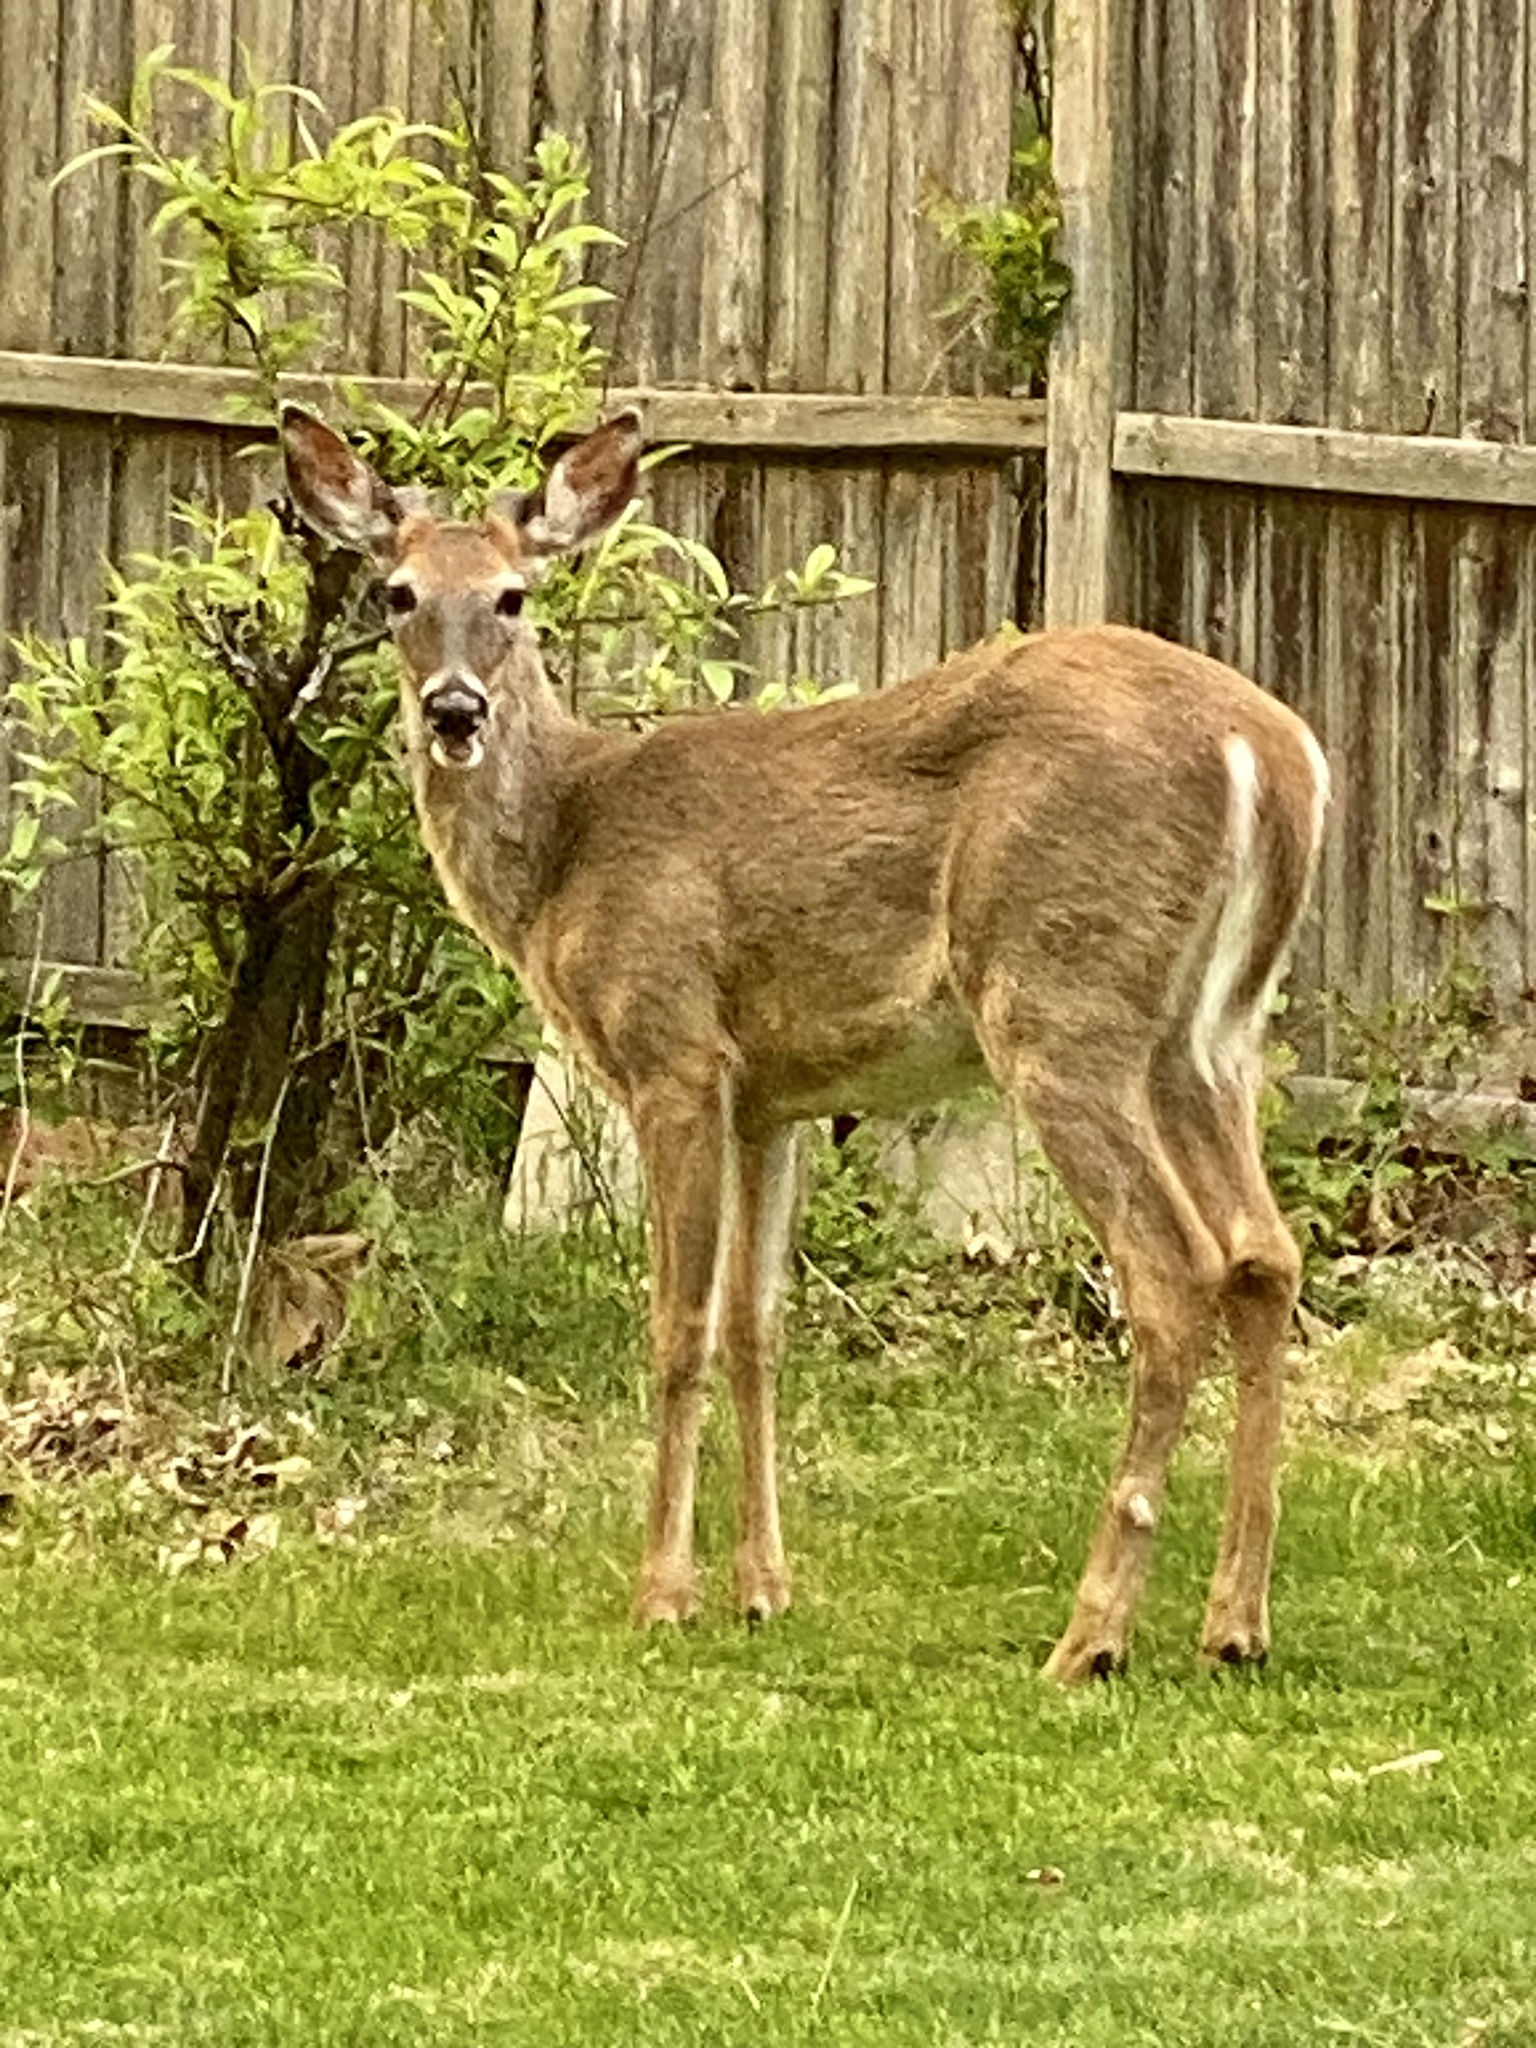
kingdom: Animalia
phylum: Chordata
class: Mammalia
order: Artiodactyla
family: Cervidae
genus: Odocoileus
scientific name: Odocoileus virginianus
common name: White-tailed deer
